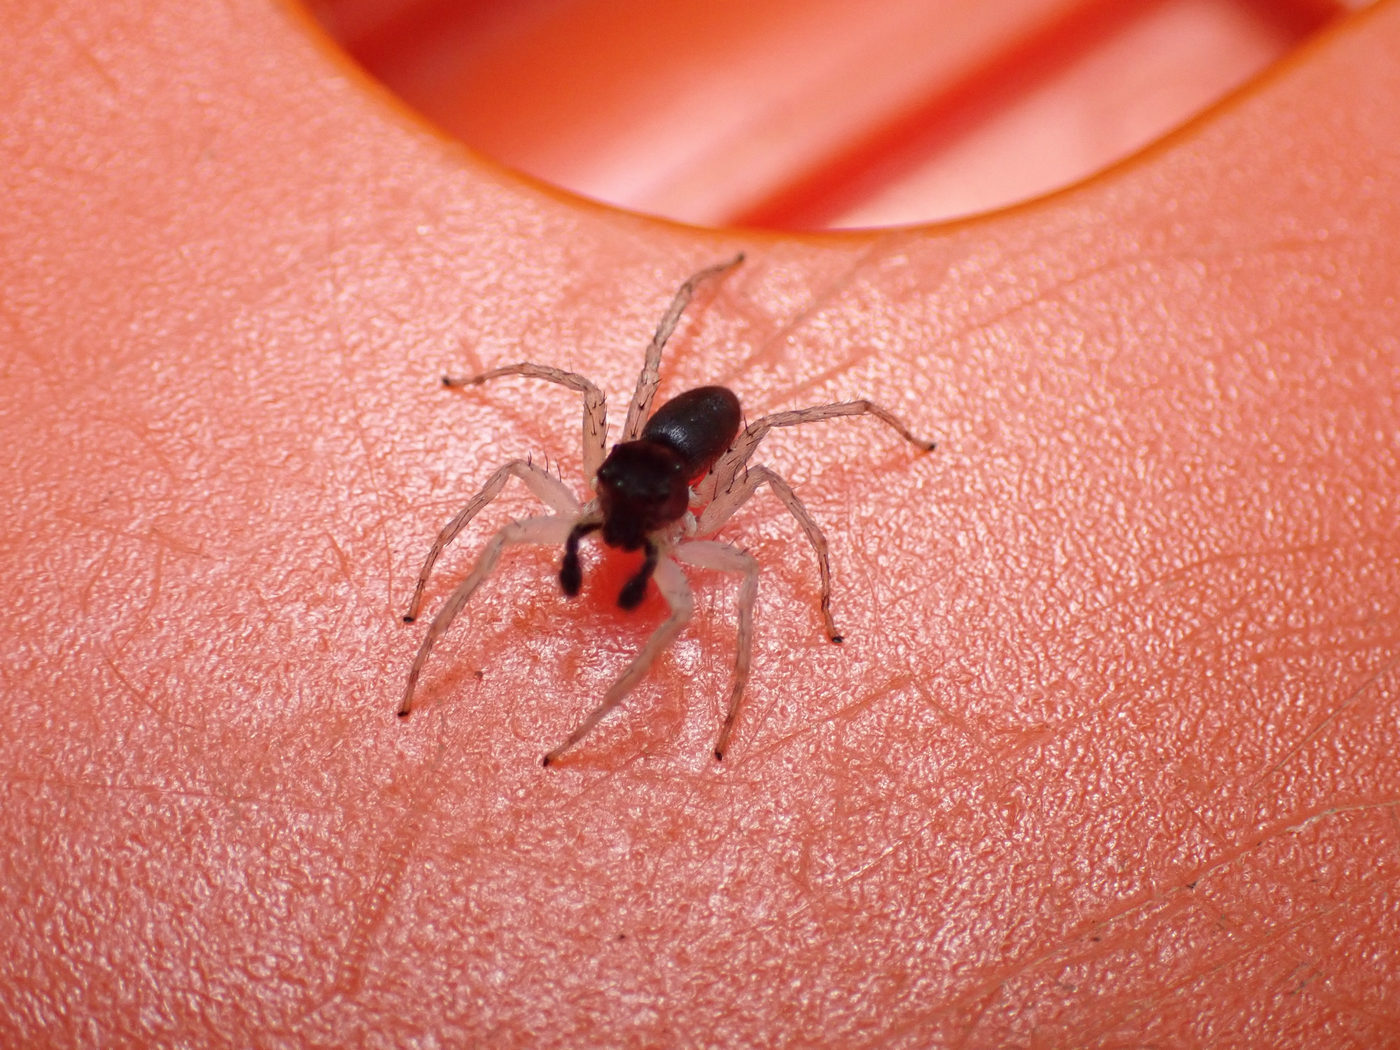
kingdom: Animalia
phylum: Arthropoda
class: Arachnida
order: Araneae
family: Salticidae
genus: Maevia
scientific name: Maevia inclemens
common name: Dimorphic jumper
